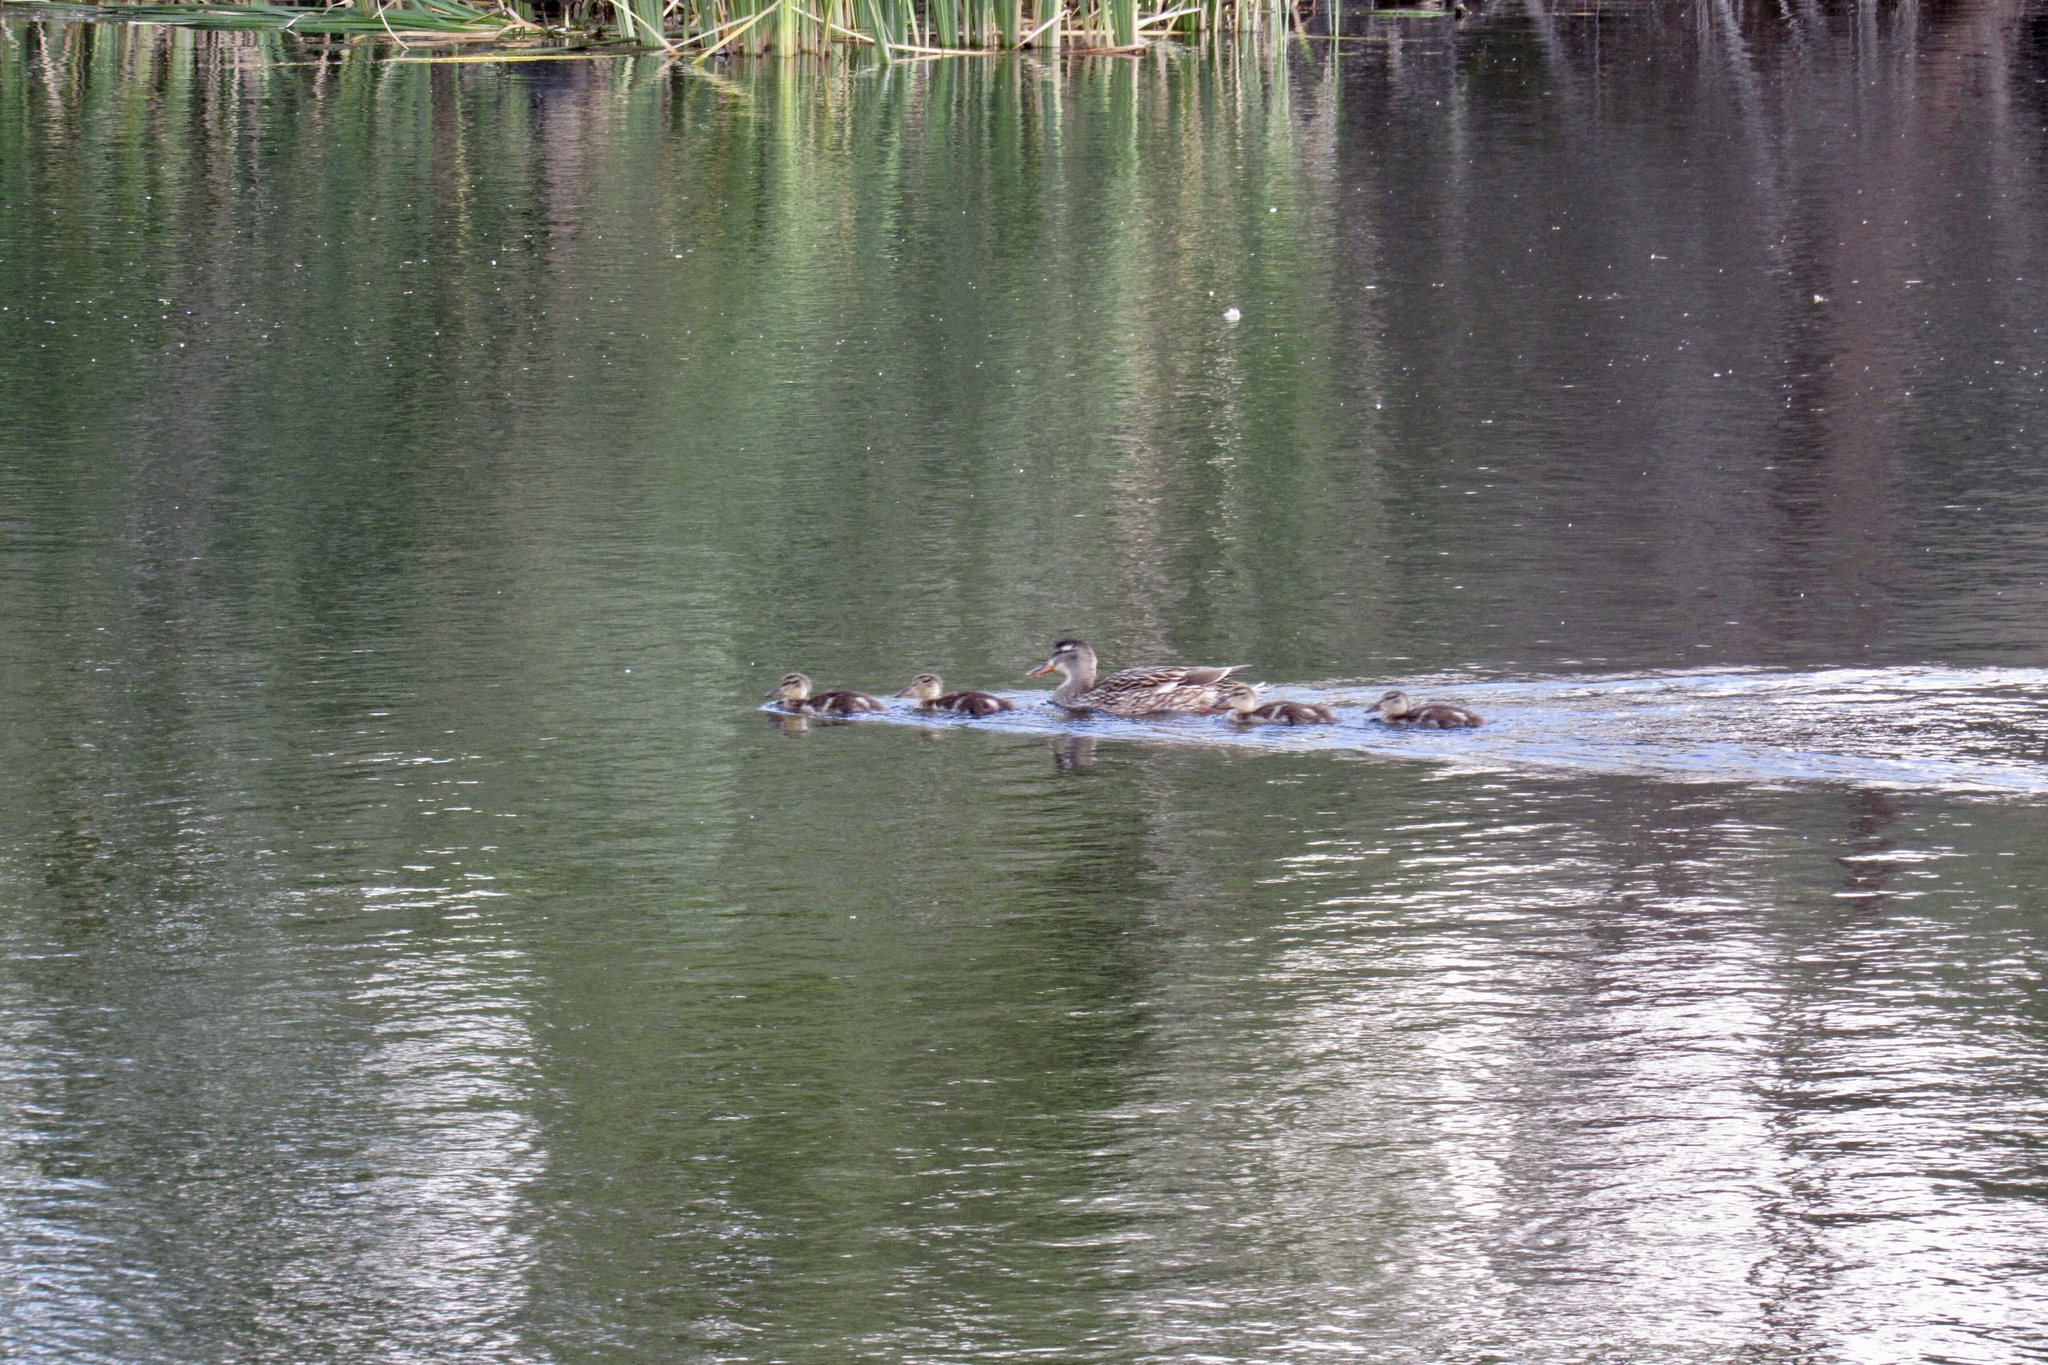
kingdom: Animalia
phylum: Chordata
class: Aves
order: Anseriformes
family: Anatidae
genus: Anas
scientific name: Anas platyrhynchos
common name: Mallard
